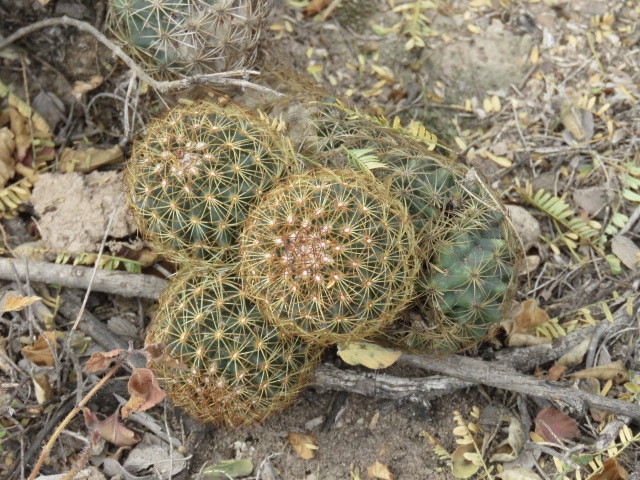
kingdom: Plantae
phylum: Tracheophyta
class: Magnoliopsida
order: Caryophyllales
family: Cactaceae
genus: Coryphantha
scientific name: Coryphantha erecta
